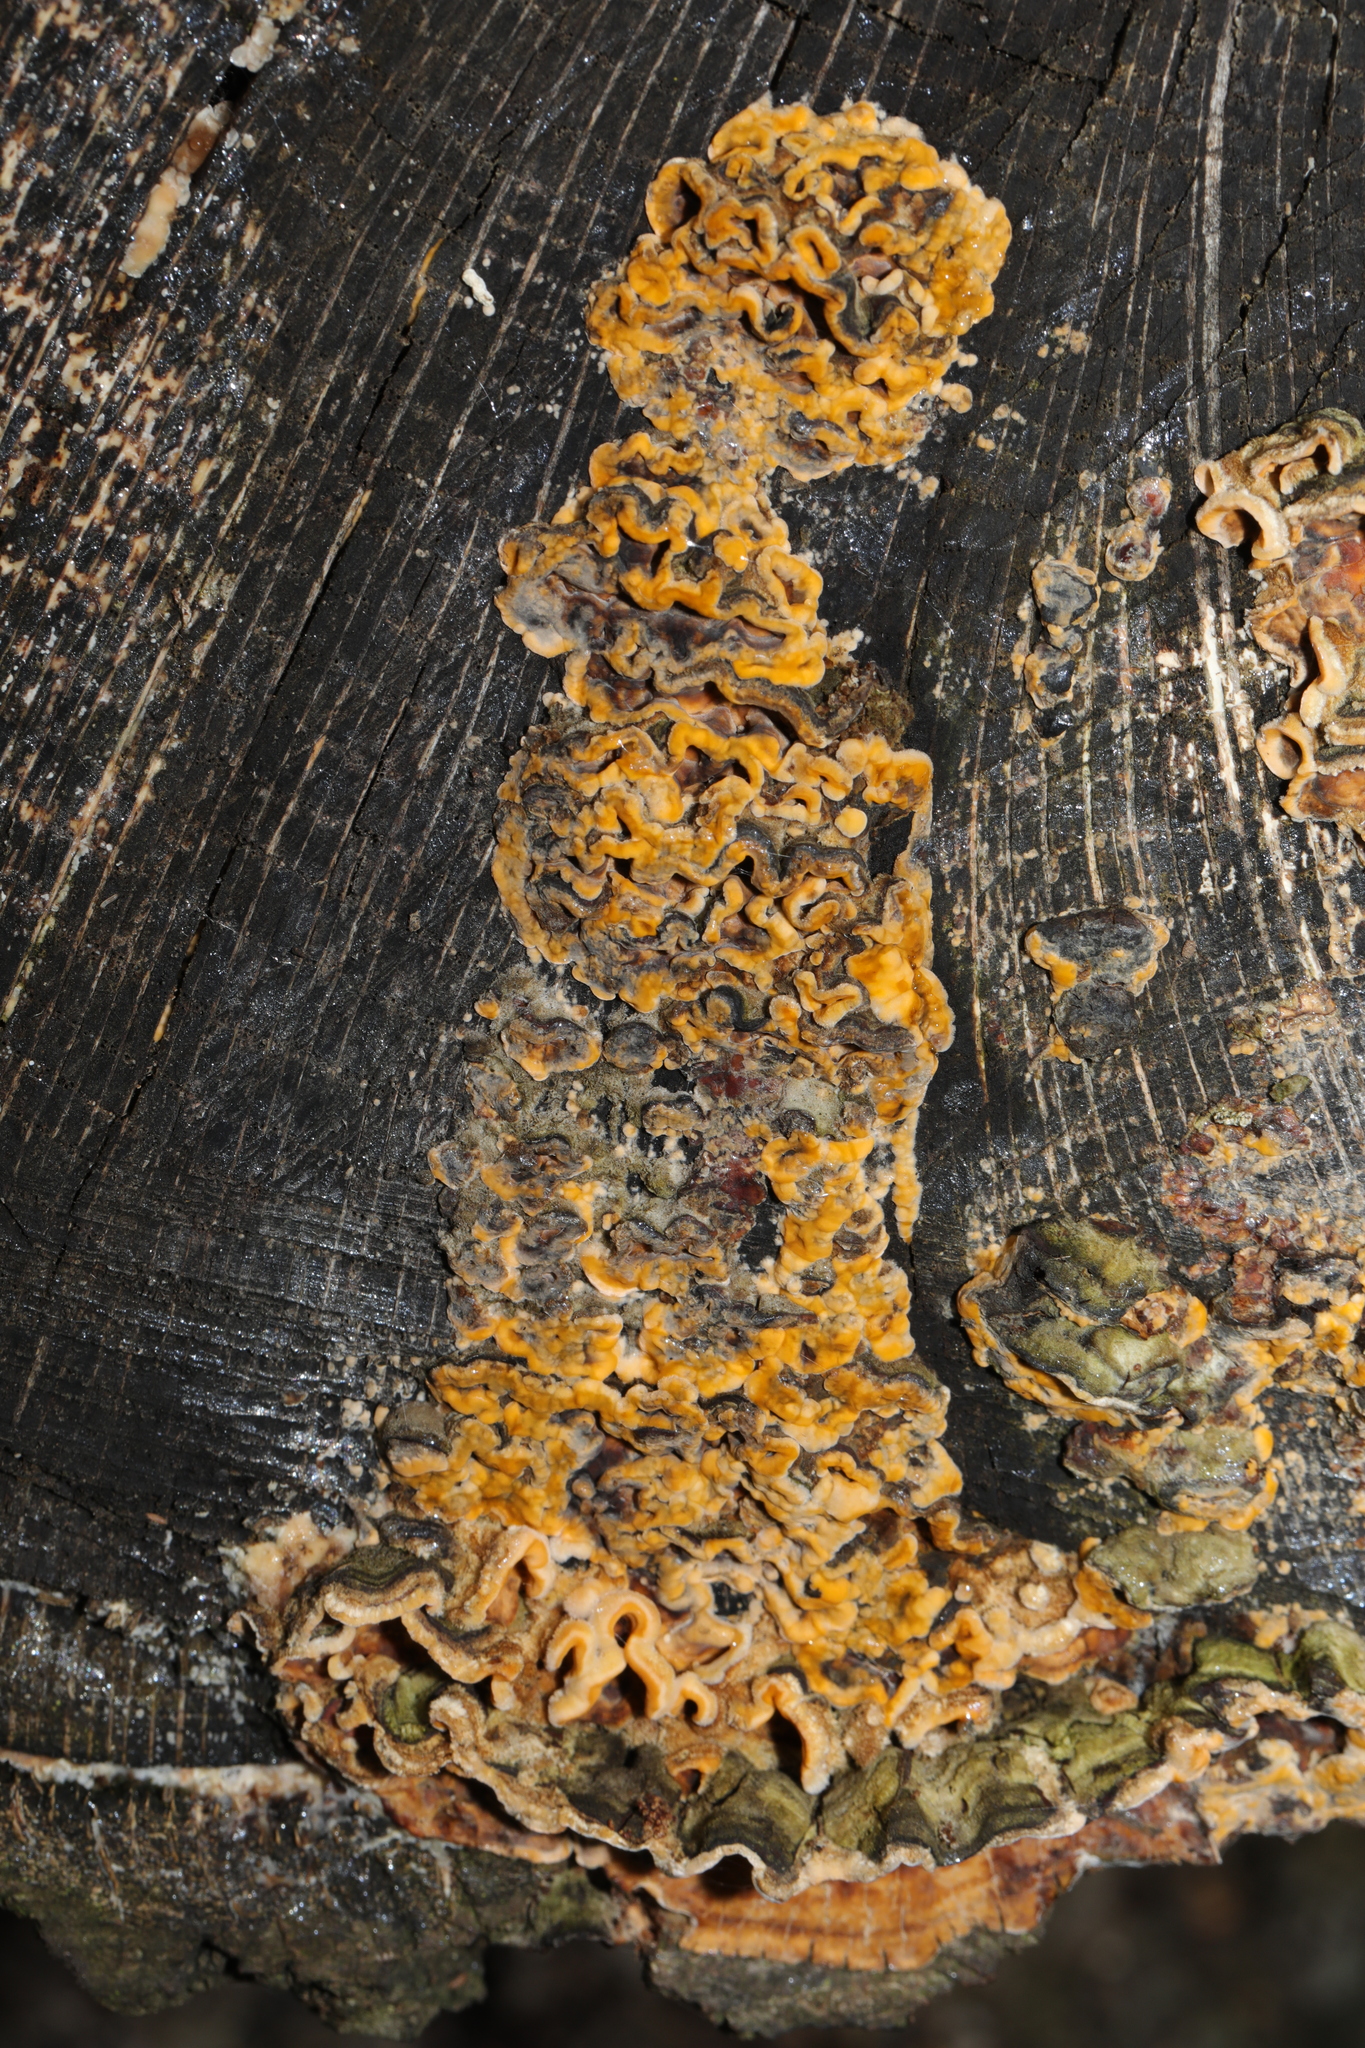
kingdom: Fungi
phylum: Basidiomycota
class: Agaricomycetes
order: Russulales
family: Stereaceae
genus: Stereum
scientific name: Stereum hirsutum
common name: Hairy curtain crust
